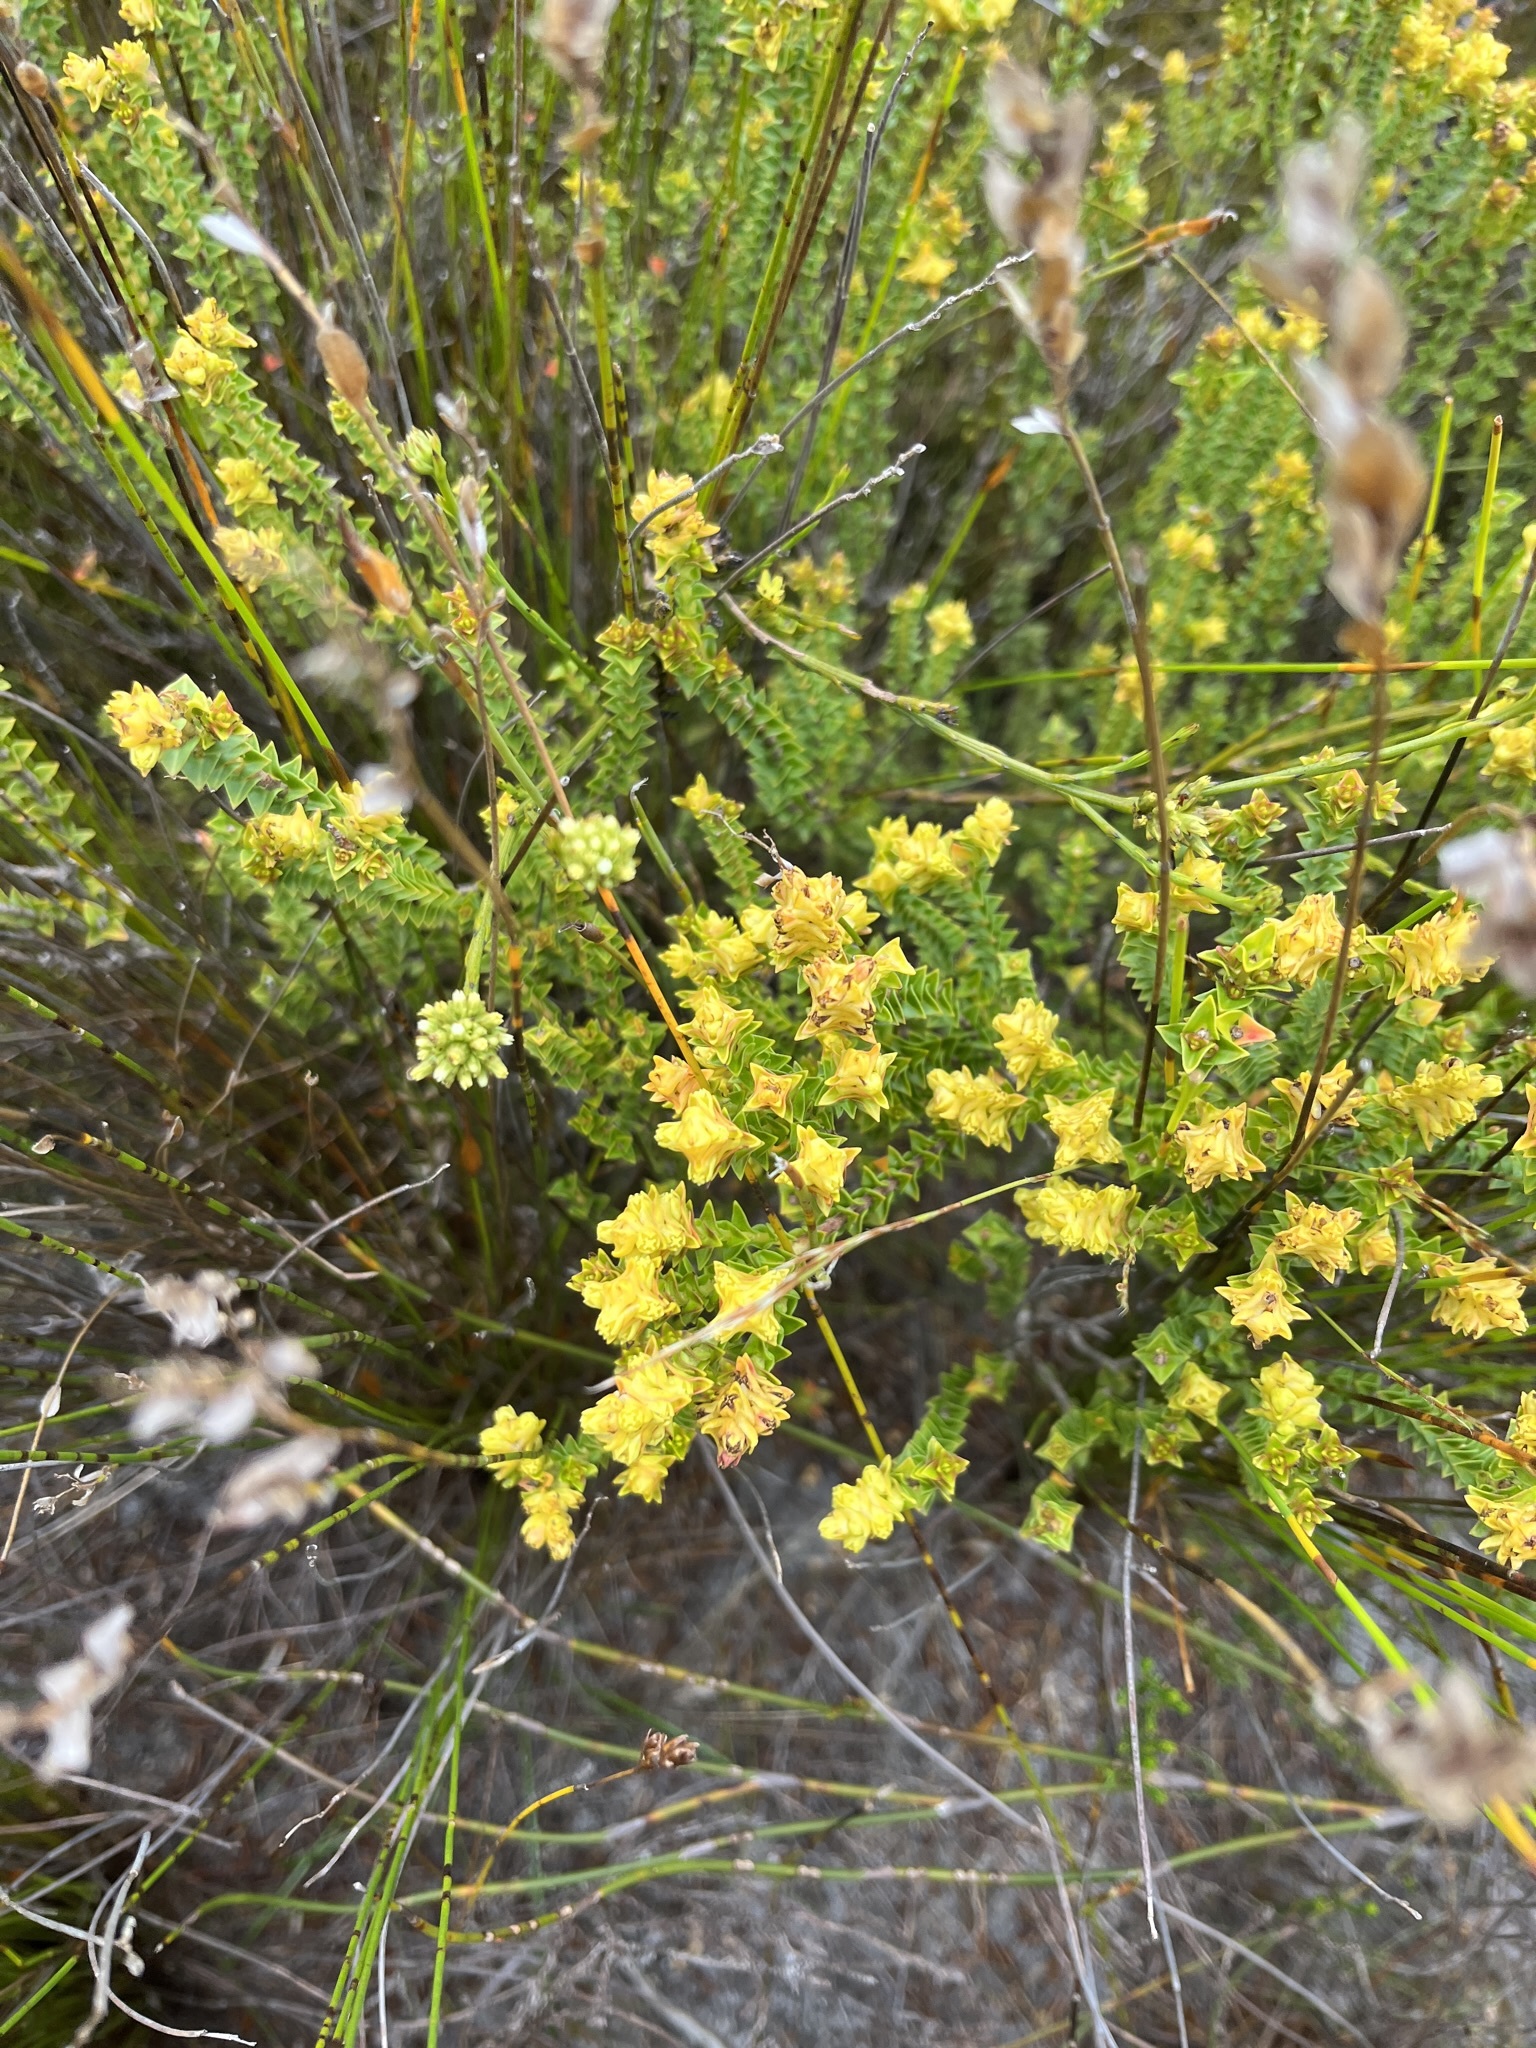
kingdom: Plantae
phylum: Tracheophyta
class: Magnoliopsida
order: Myrtales
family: Penaeaceae
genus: Penaea
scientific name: Penaea mucronata
